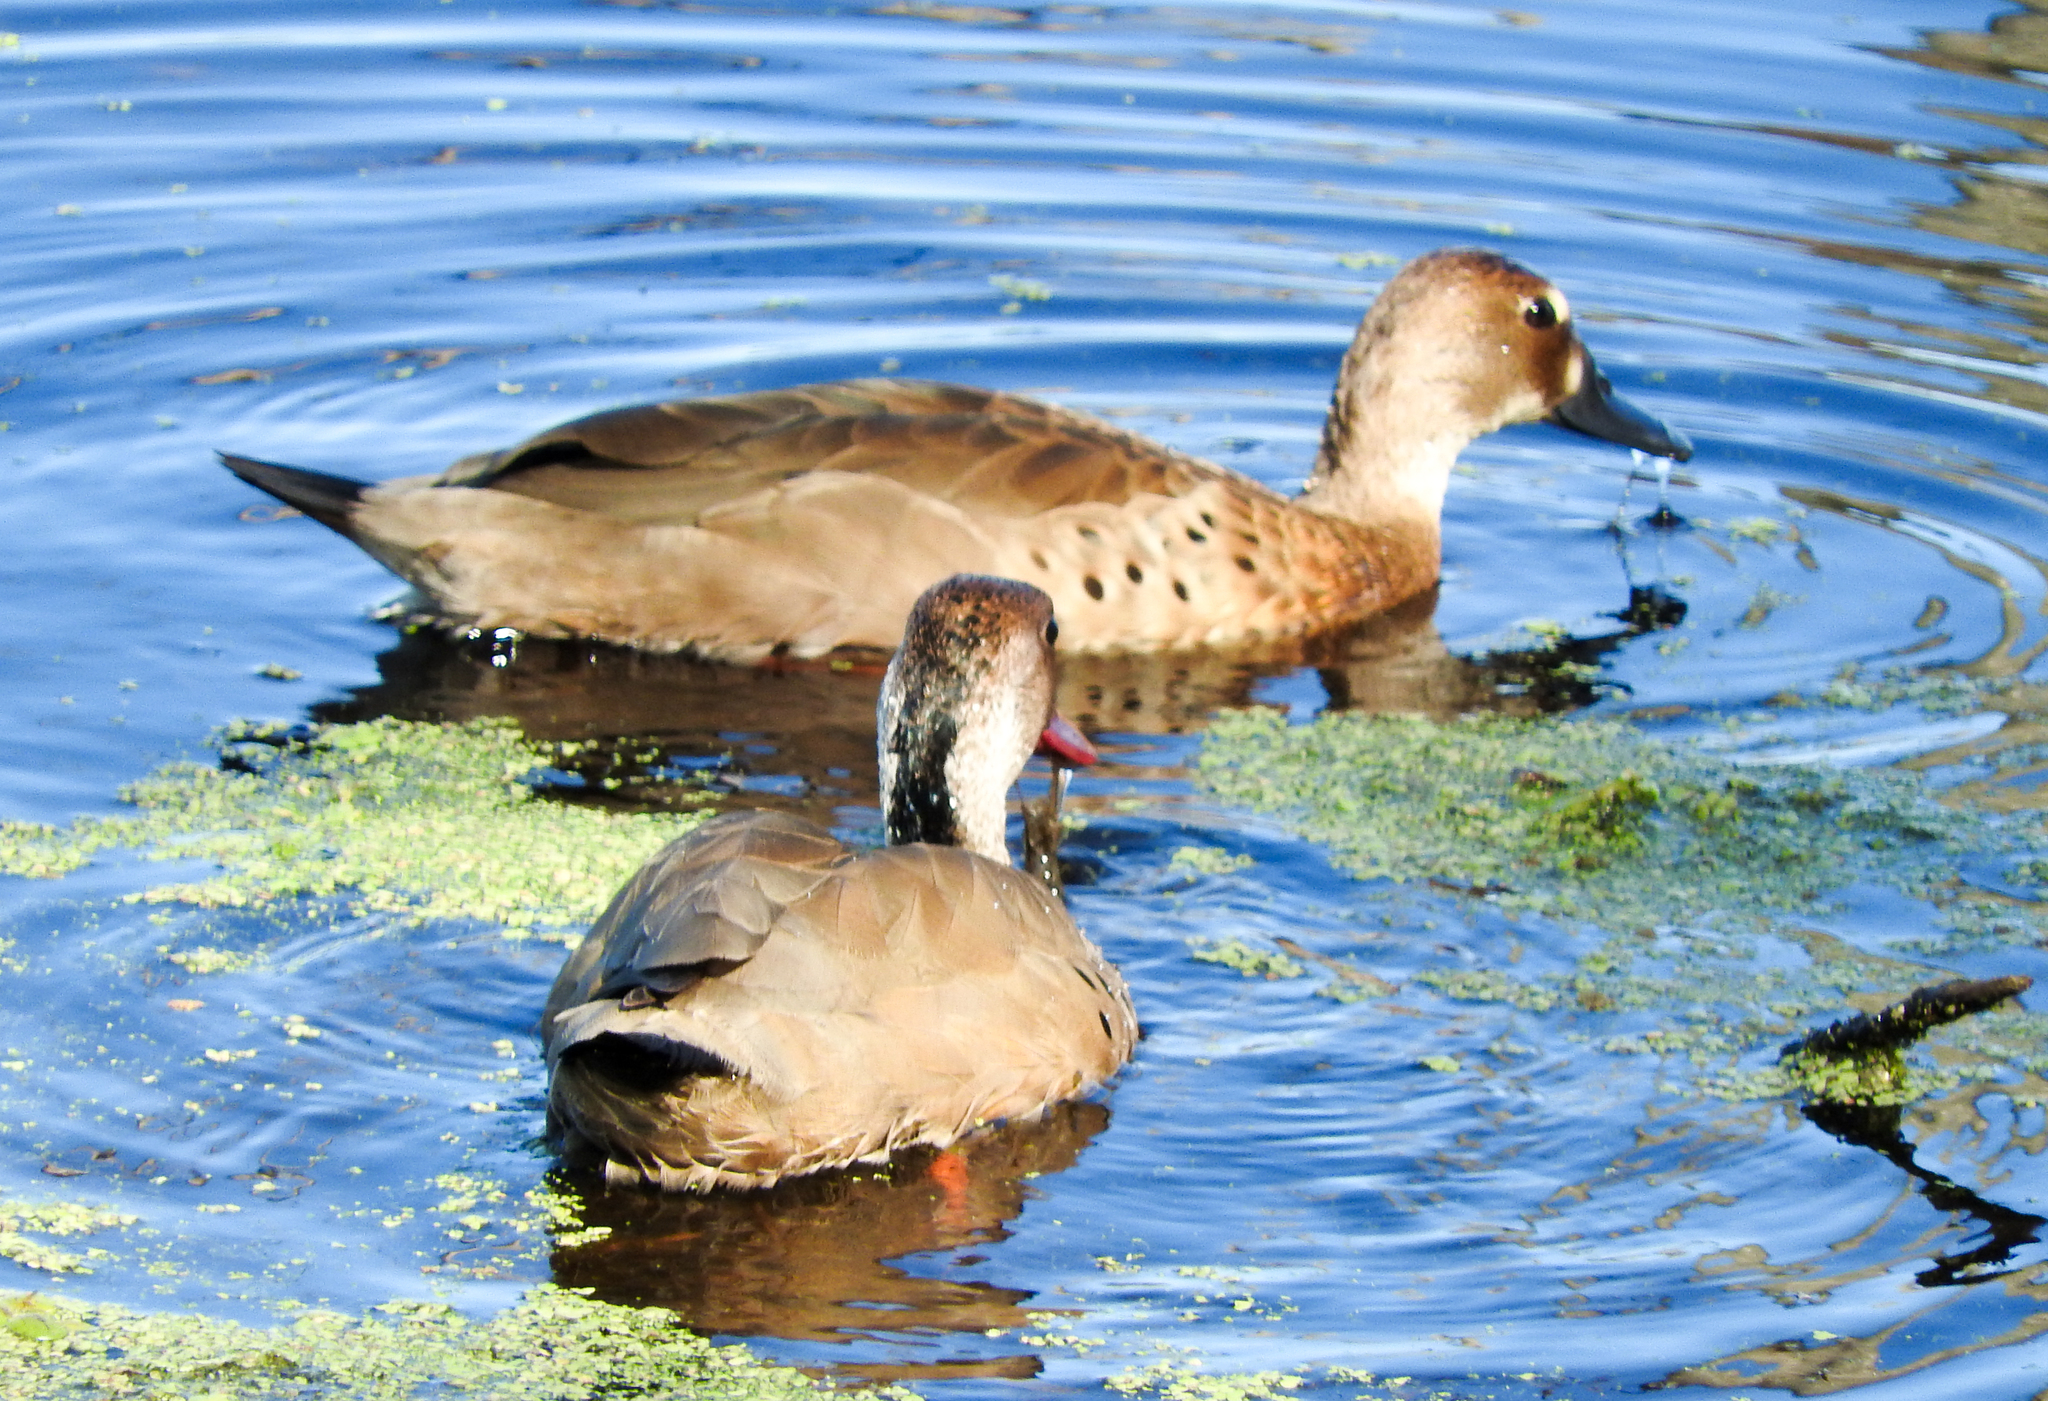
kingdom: Animalia
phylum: Chordata
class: Aves
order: Anseriformes
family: Anatidae
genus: Amazonetta
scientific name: Amazonetta brasiliensis
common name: Brazilian teal
